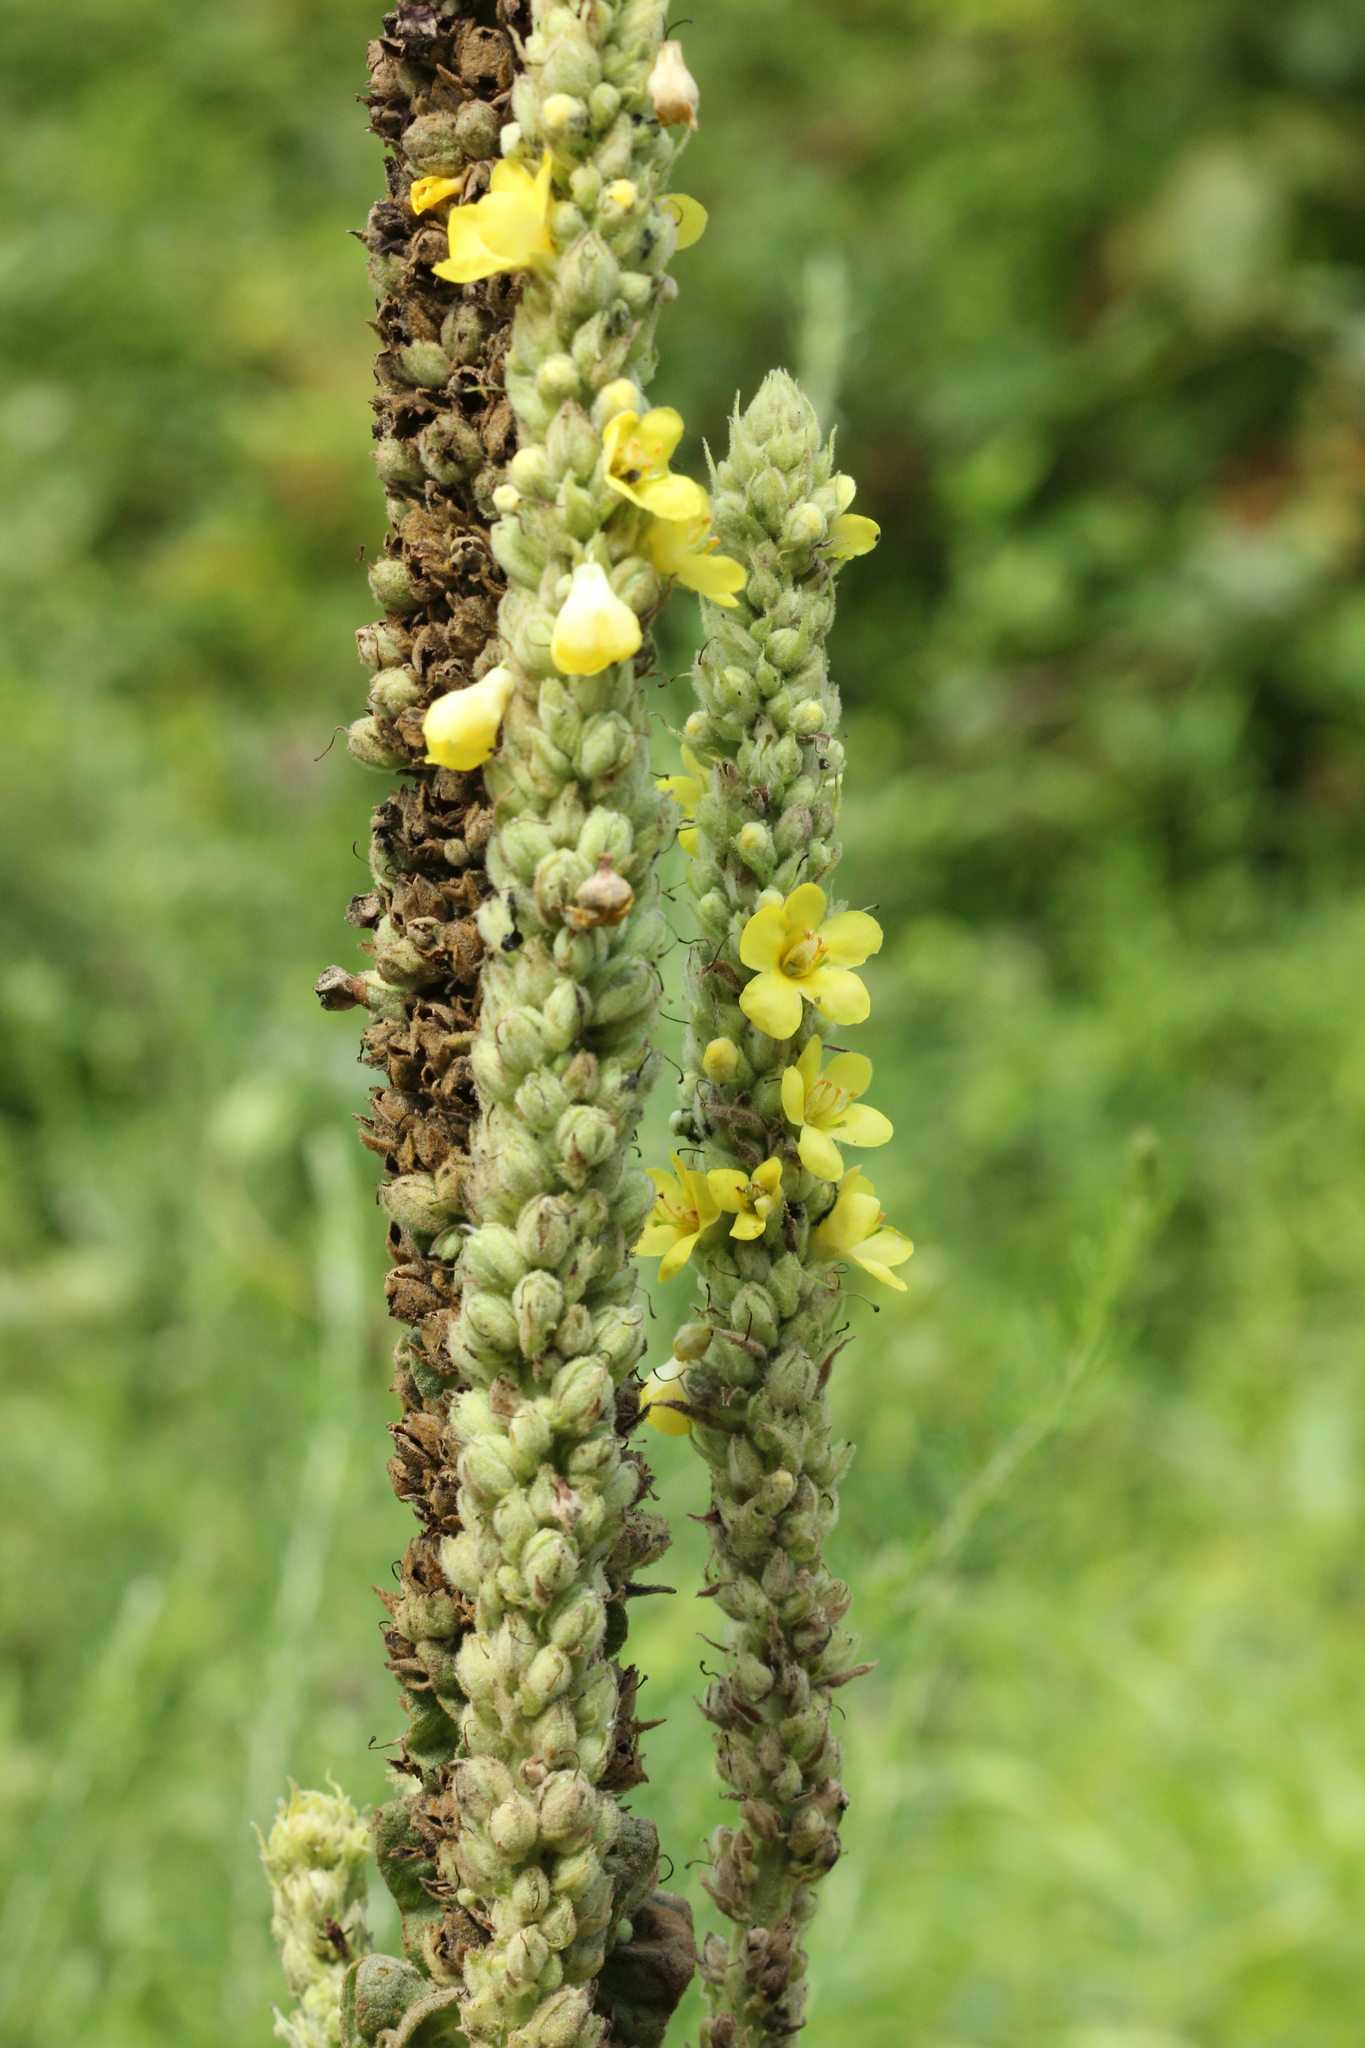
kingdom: Plantae
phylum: Tracheophyta
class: Magnoliopsida
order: Lamiales
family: Scrophulariaceae
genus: Verbascum
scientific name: Verbascum thapsus
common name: Common mullein
